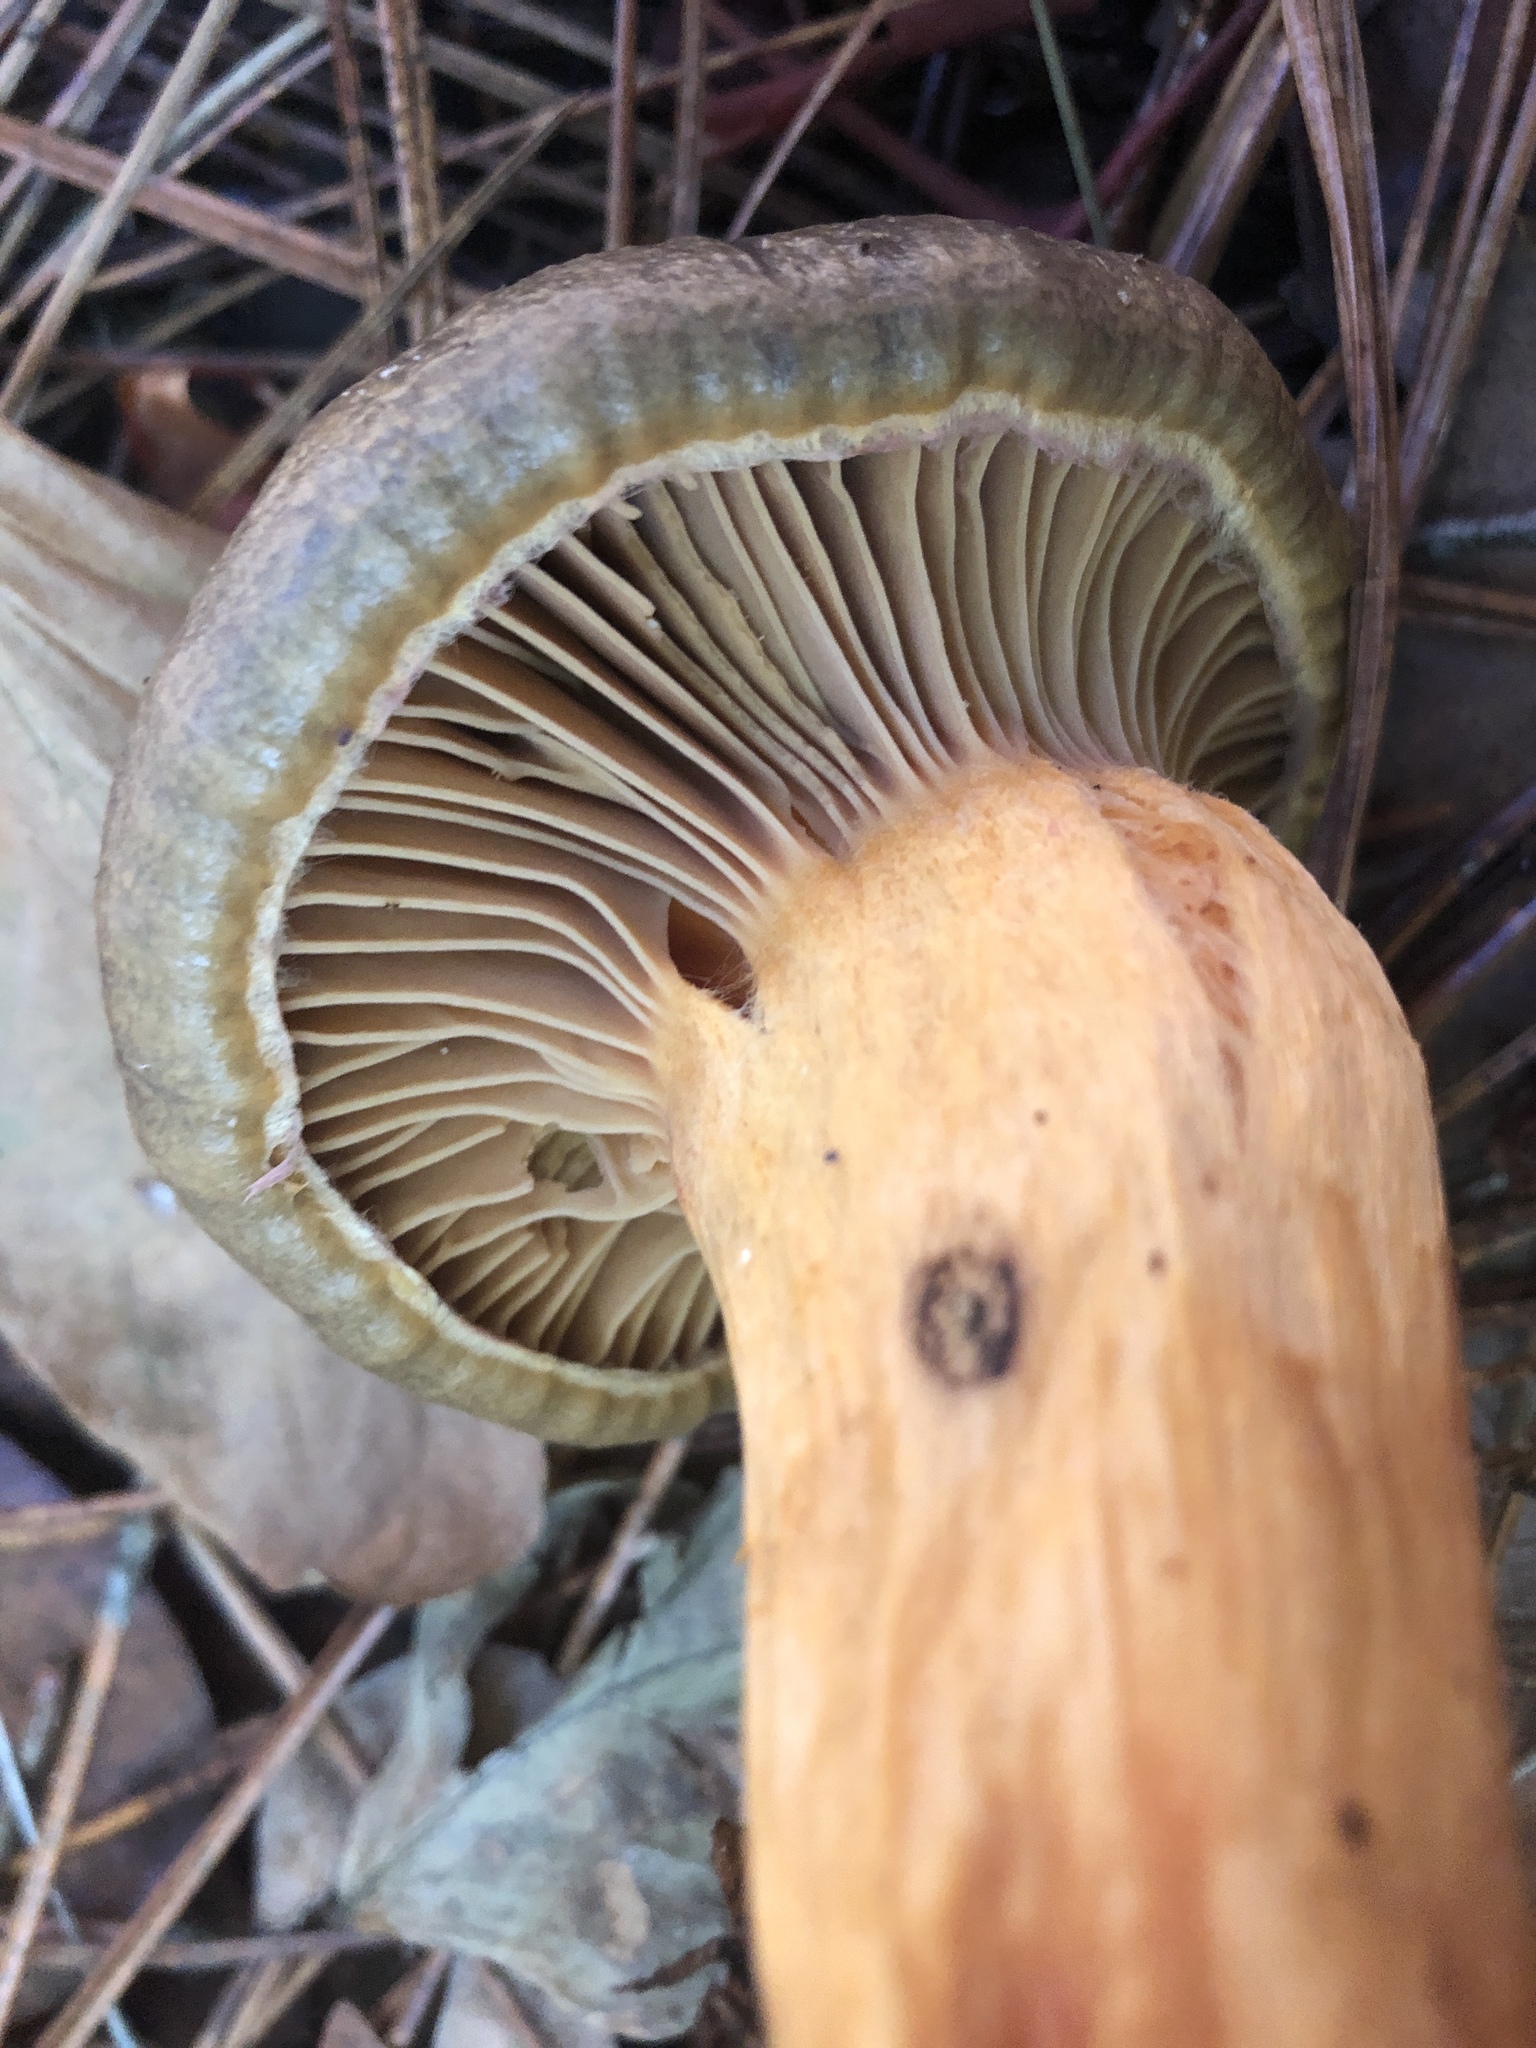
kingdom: Fungi
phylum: Basidiomycota
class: Agaricomycetes
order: Boletales
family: Gomphidiaceae
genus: Chroogomphus
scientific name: Chroogomphus ochraceus
